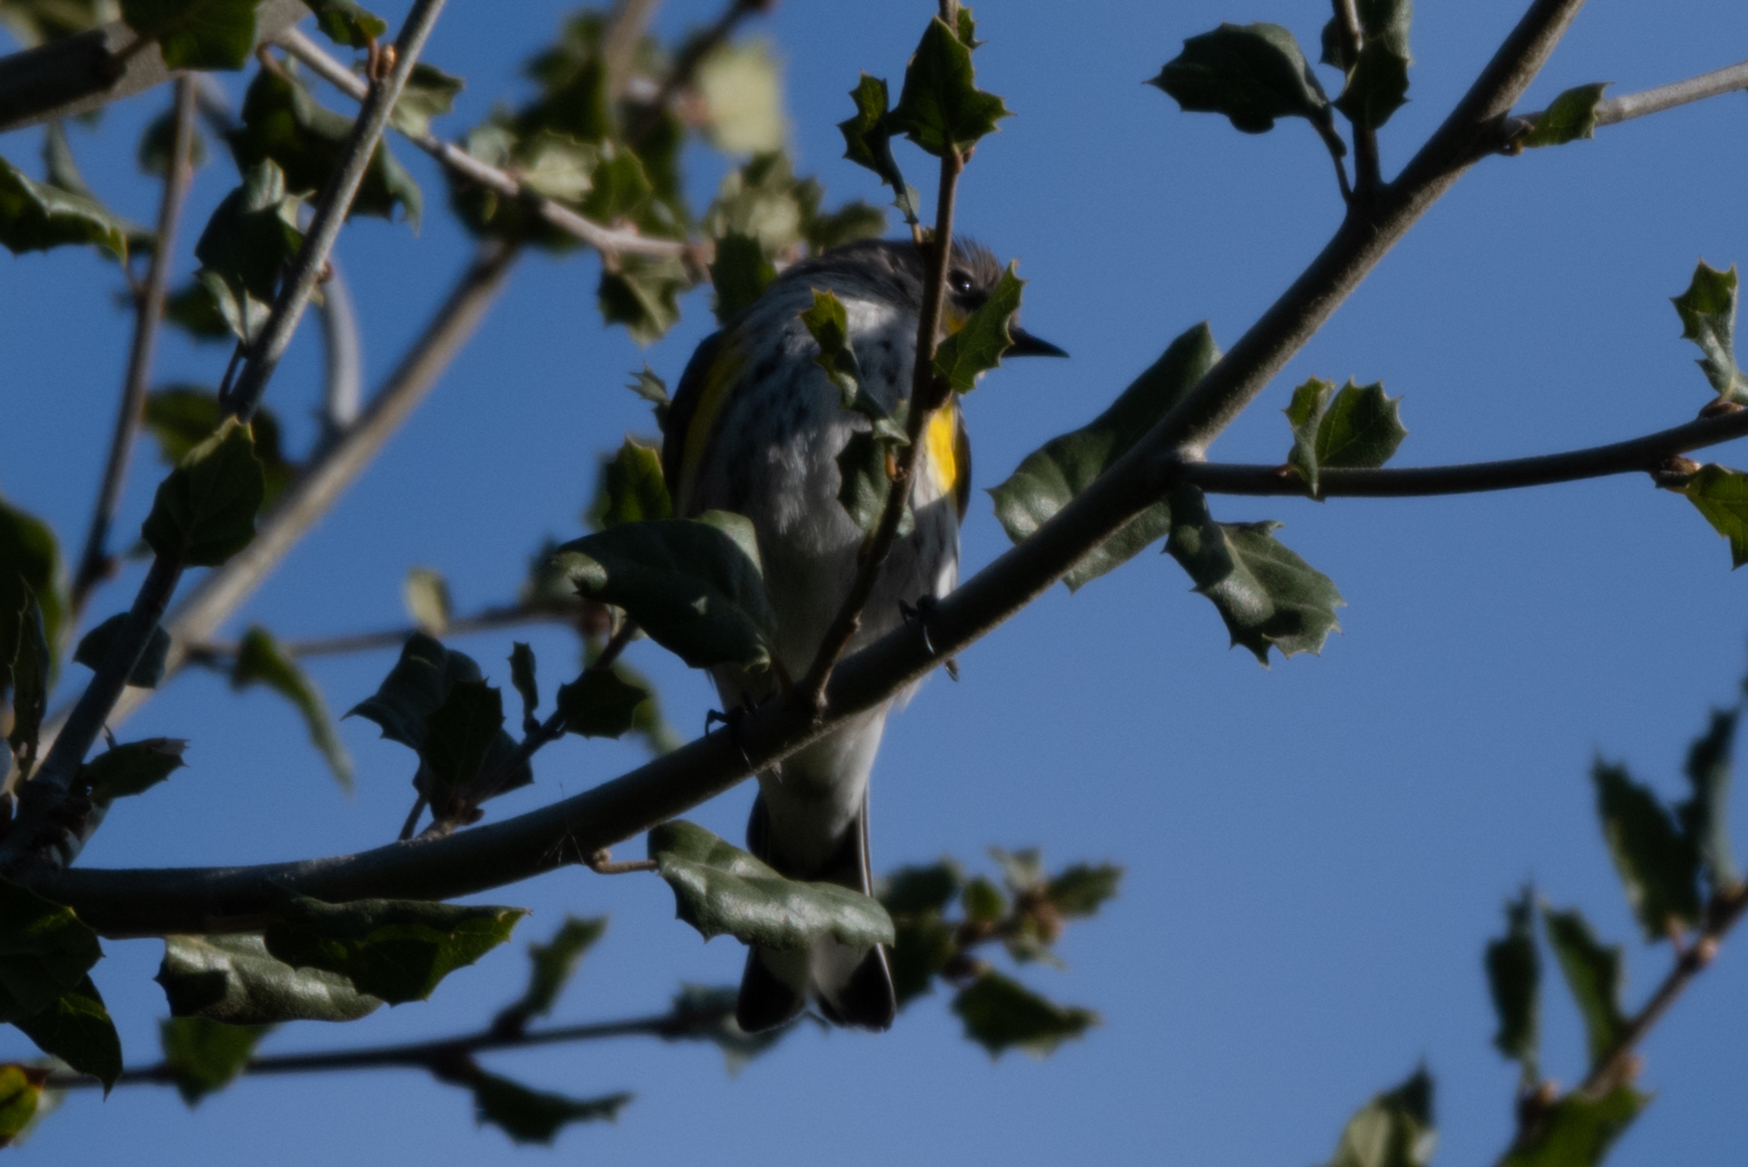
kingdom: Animalia
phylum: Chordata
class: Aves
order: Passeriformes
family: Parulidae
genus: Setophaga
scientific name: Setophaga coronata
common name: Myrtle warbler
